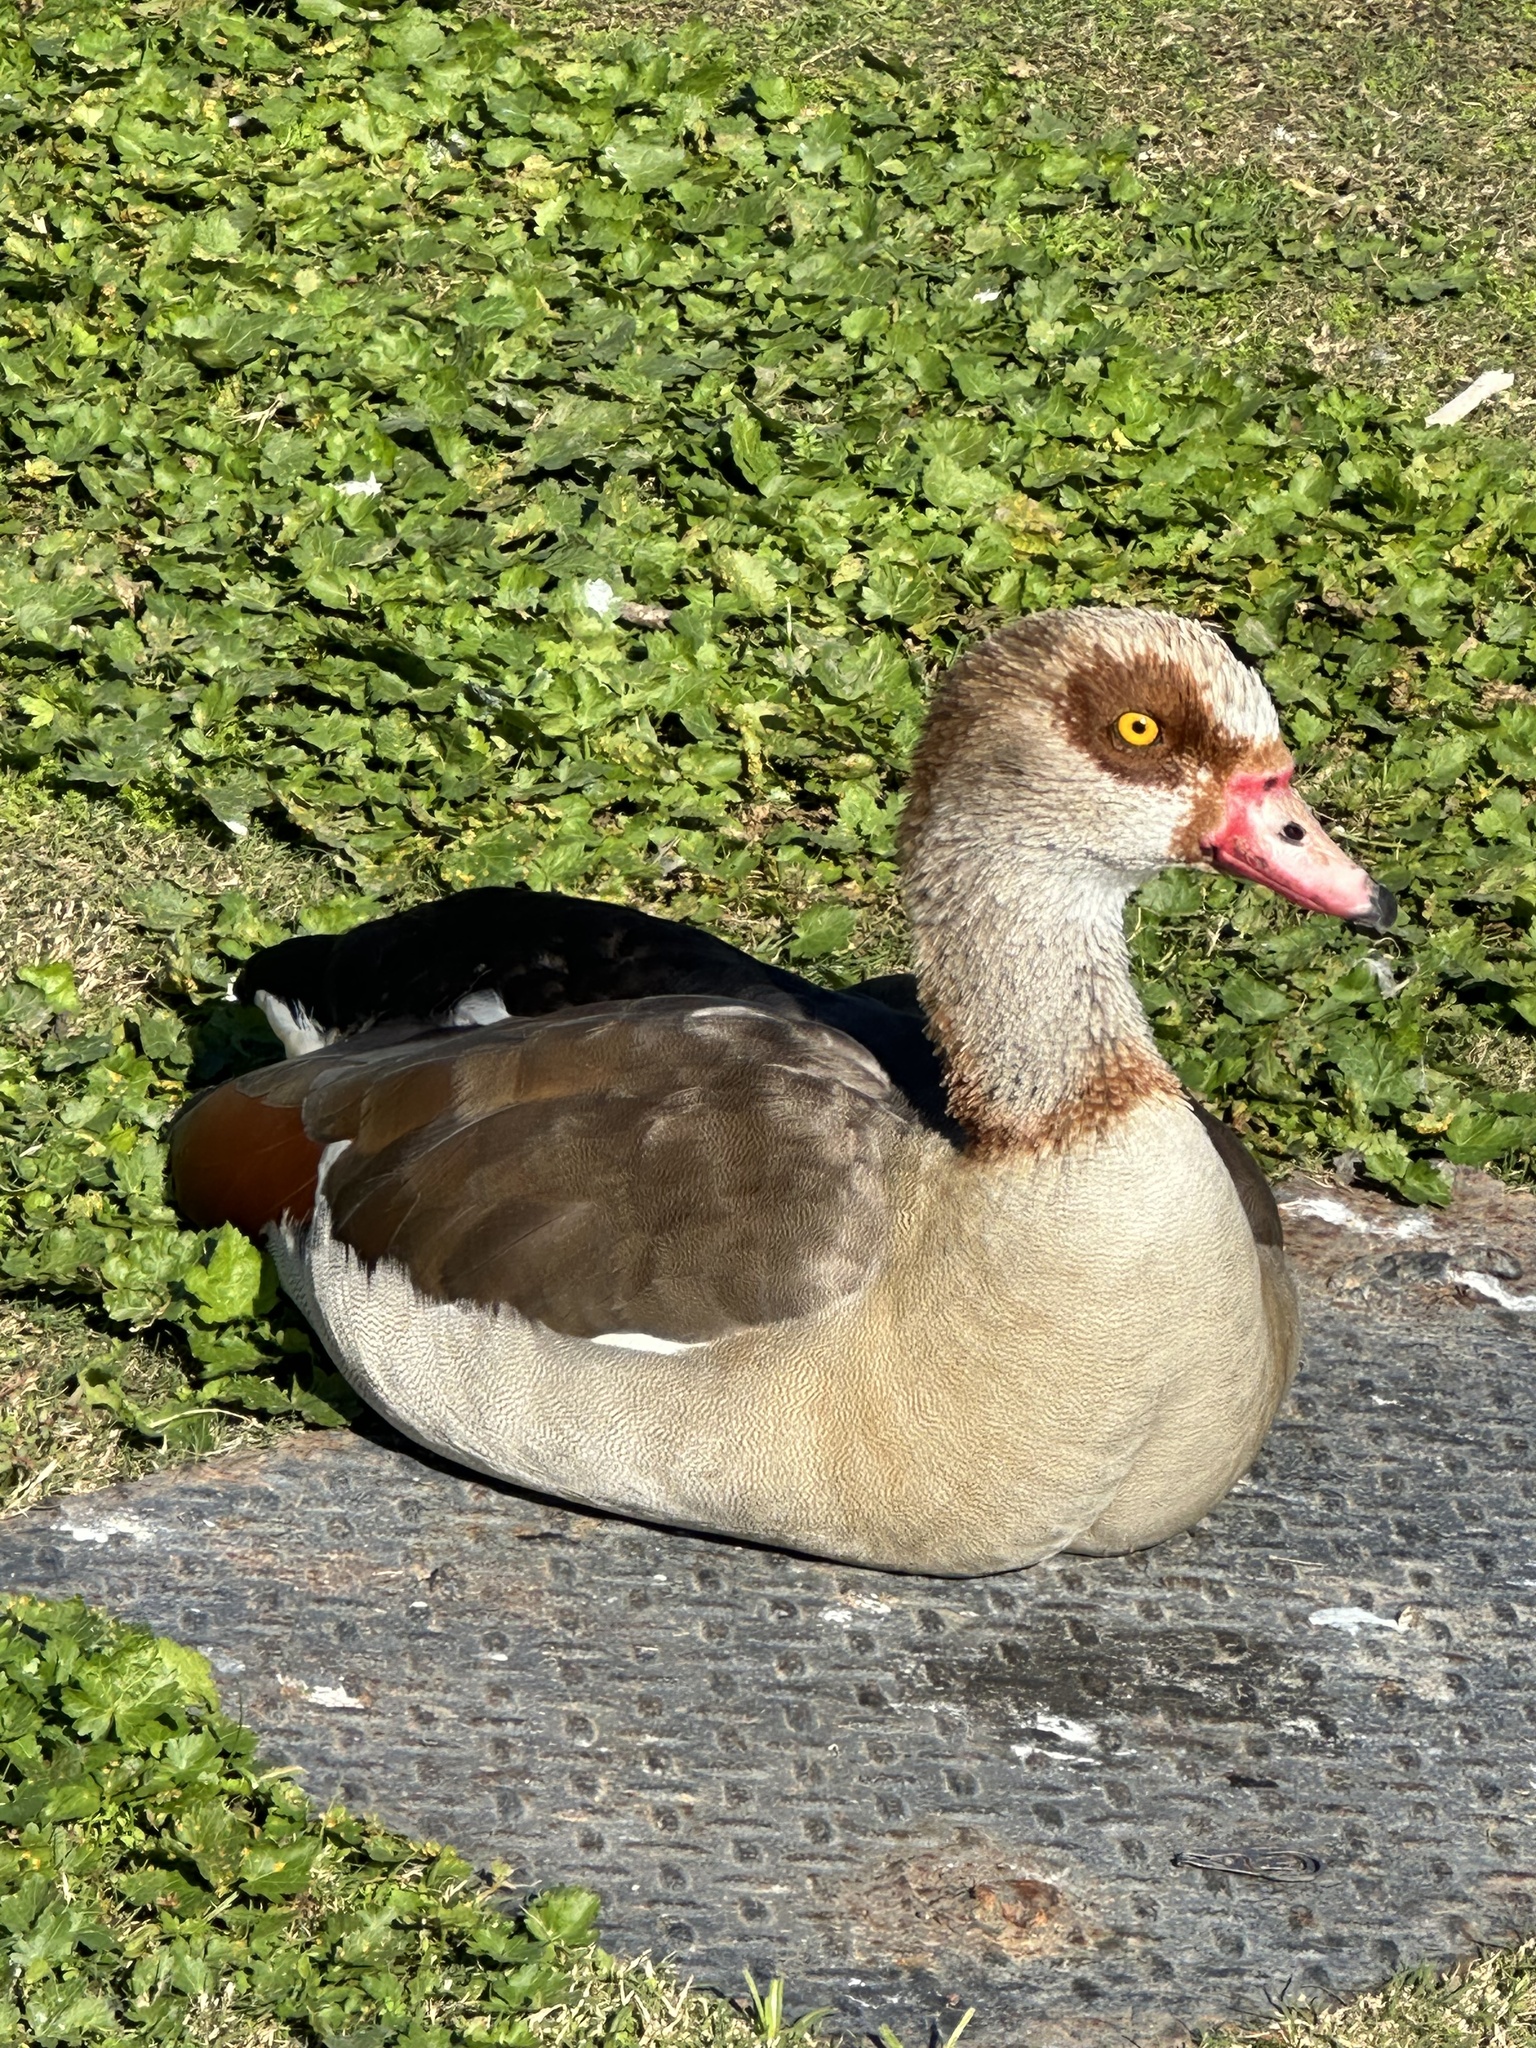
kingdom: Animalia
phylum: Chordata
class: Aves
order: Anseriformes
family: Anatidae
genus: Alopochen
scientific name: Alopochen aegyptiaca
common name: Egyptian goose
